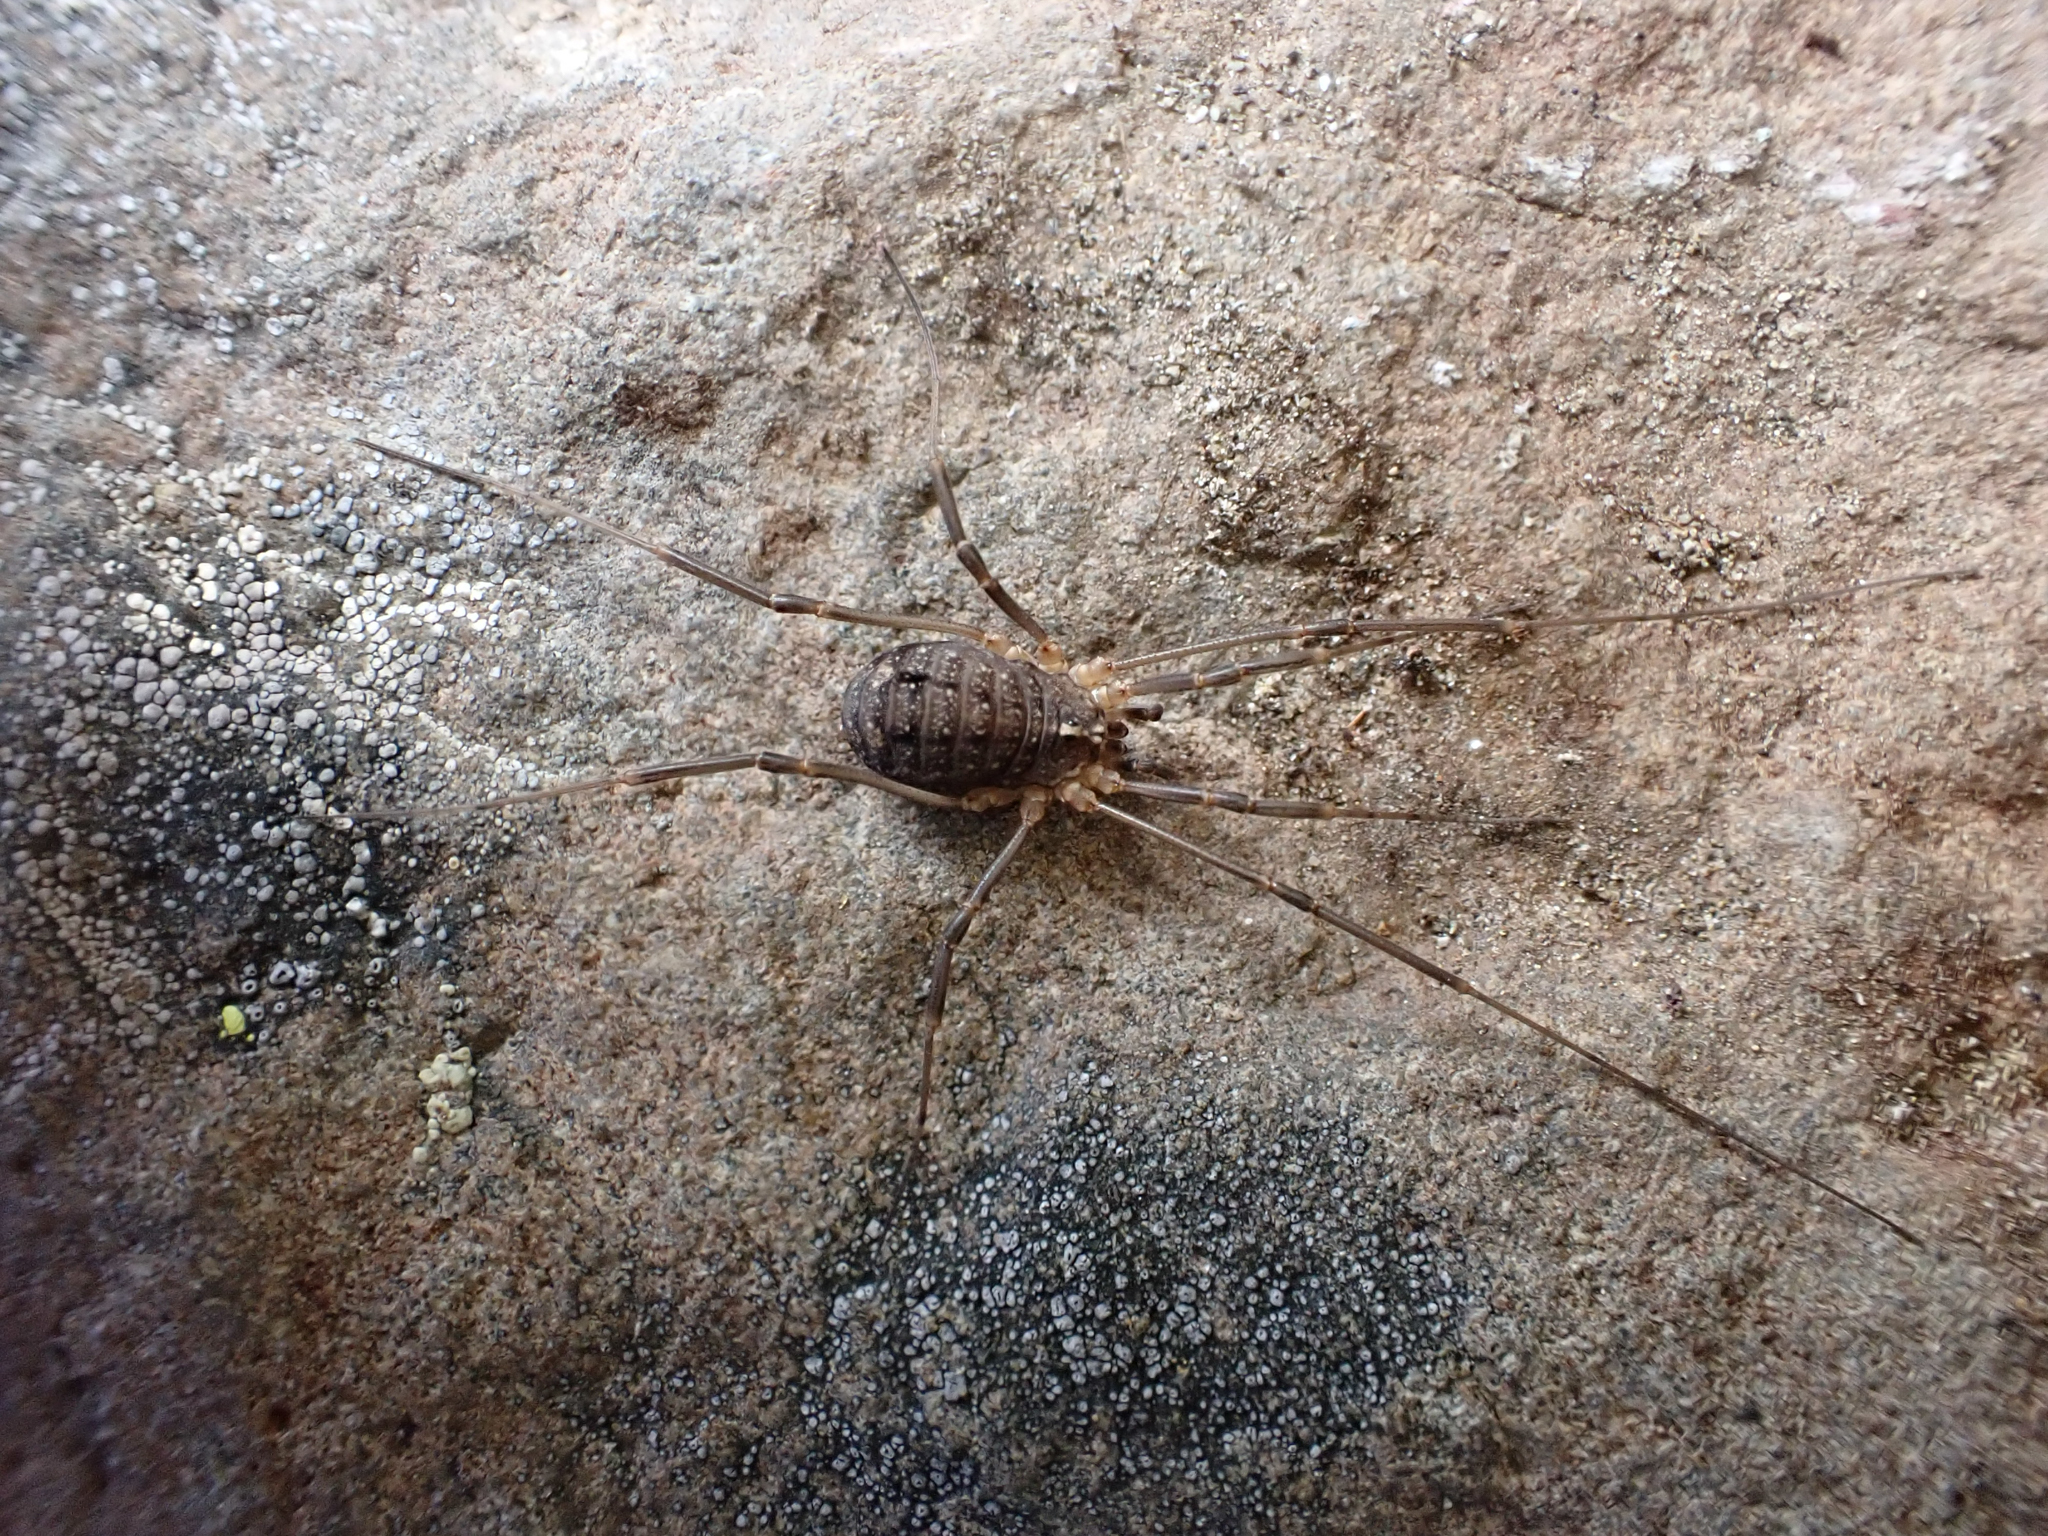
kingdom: Animalia
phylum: Arthropoda
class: Arachnida
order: Opiliones
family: Sclerosomatidae
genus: Togwoteeus
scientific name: Togwoteeus biceps
